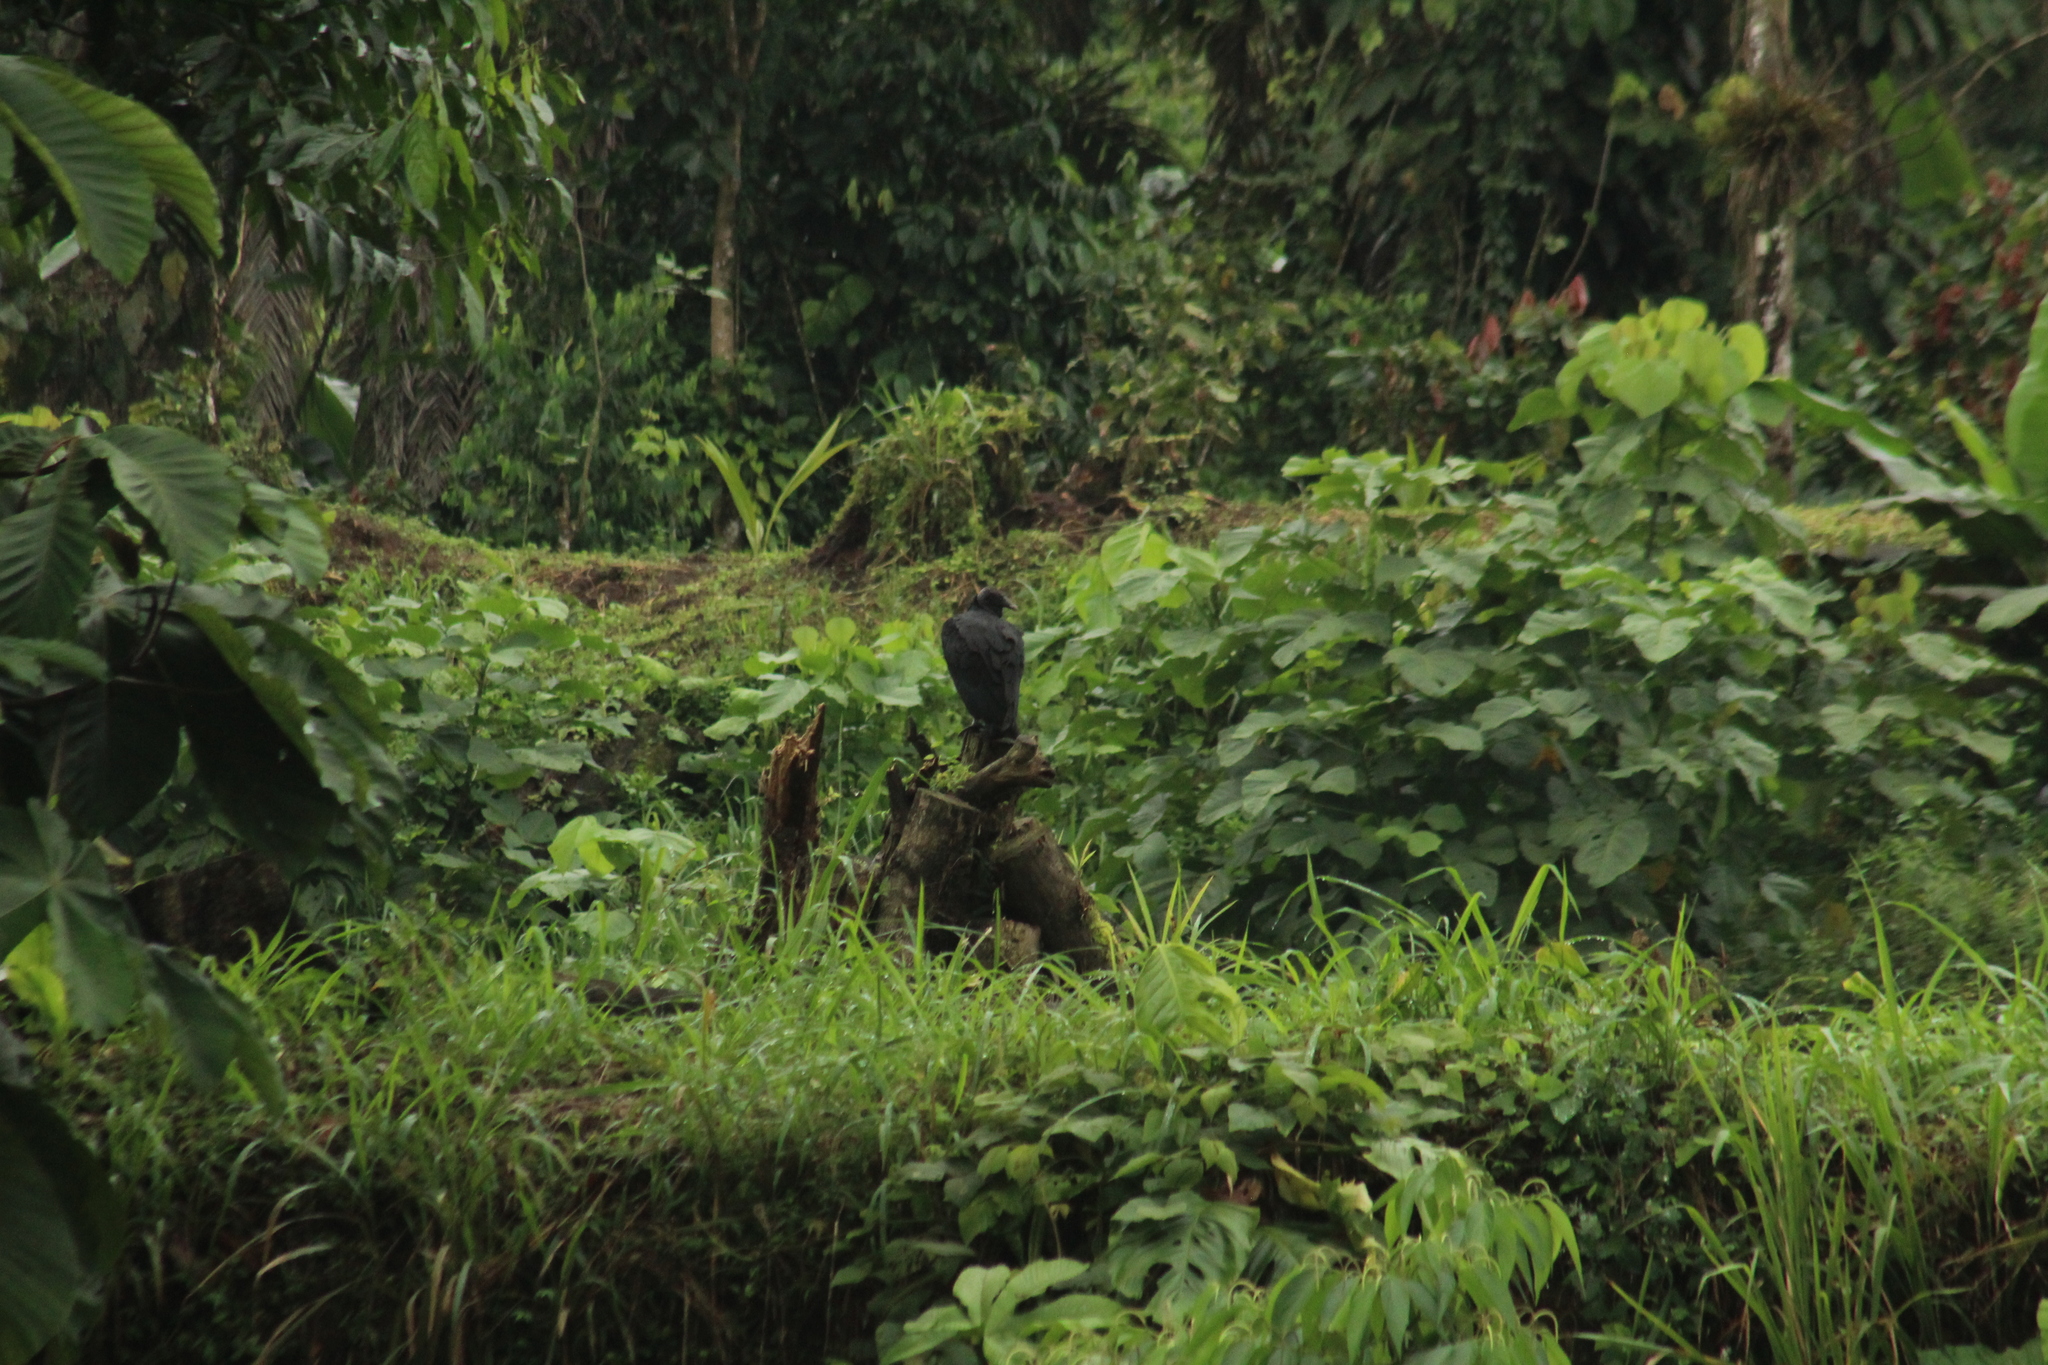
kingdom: Animalia
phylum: Chordata
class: Aves
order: Accipitriformes
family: Cathartidae
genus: Coragyps
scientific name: Coragyps atratus
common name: Black vulture
